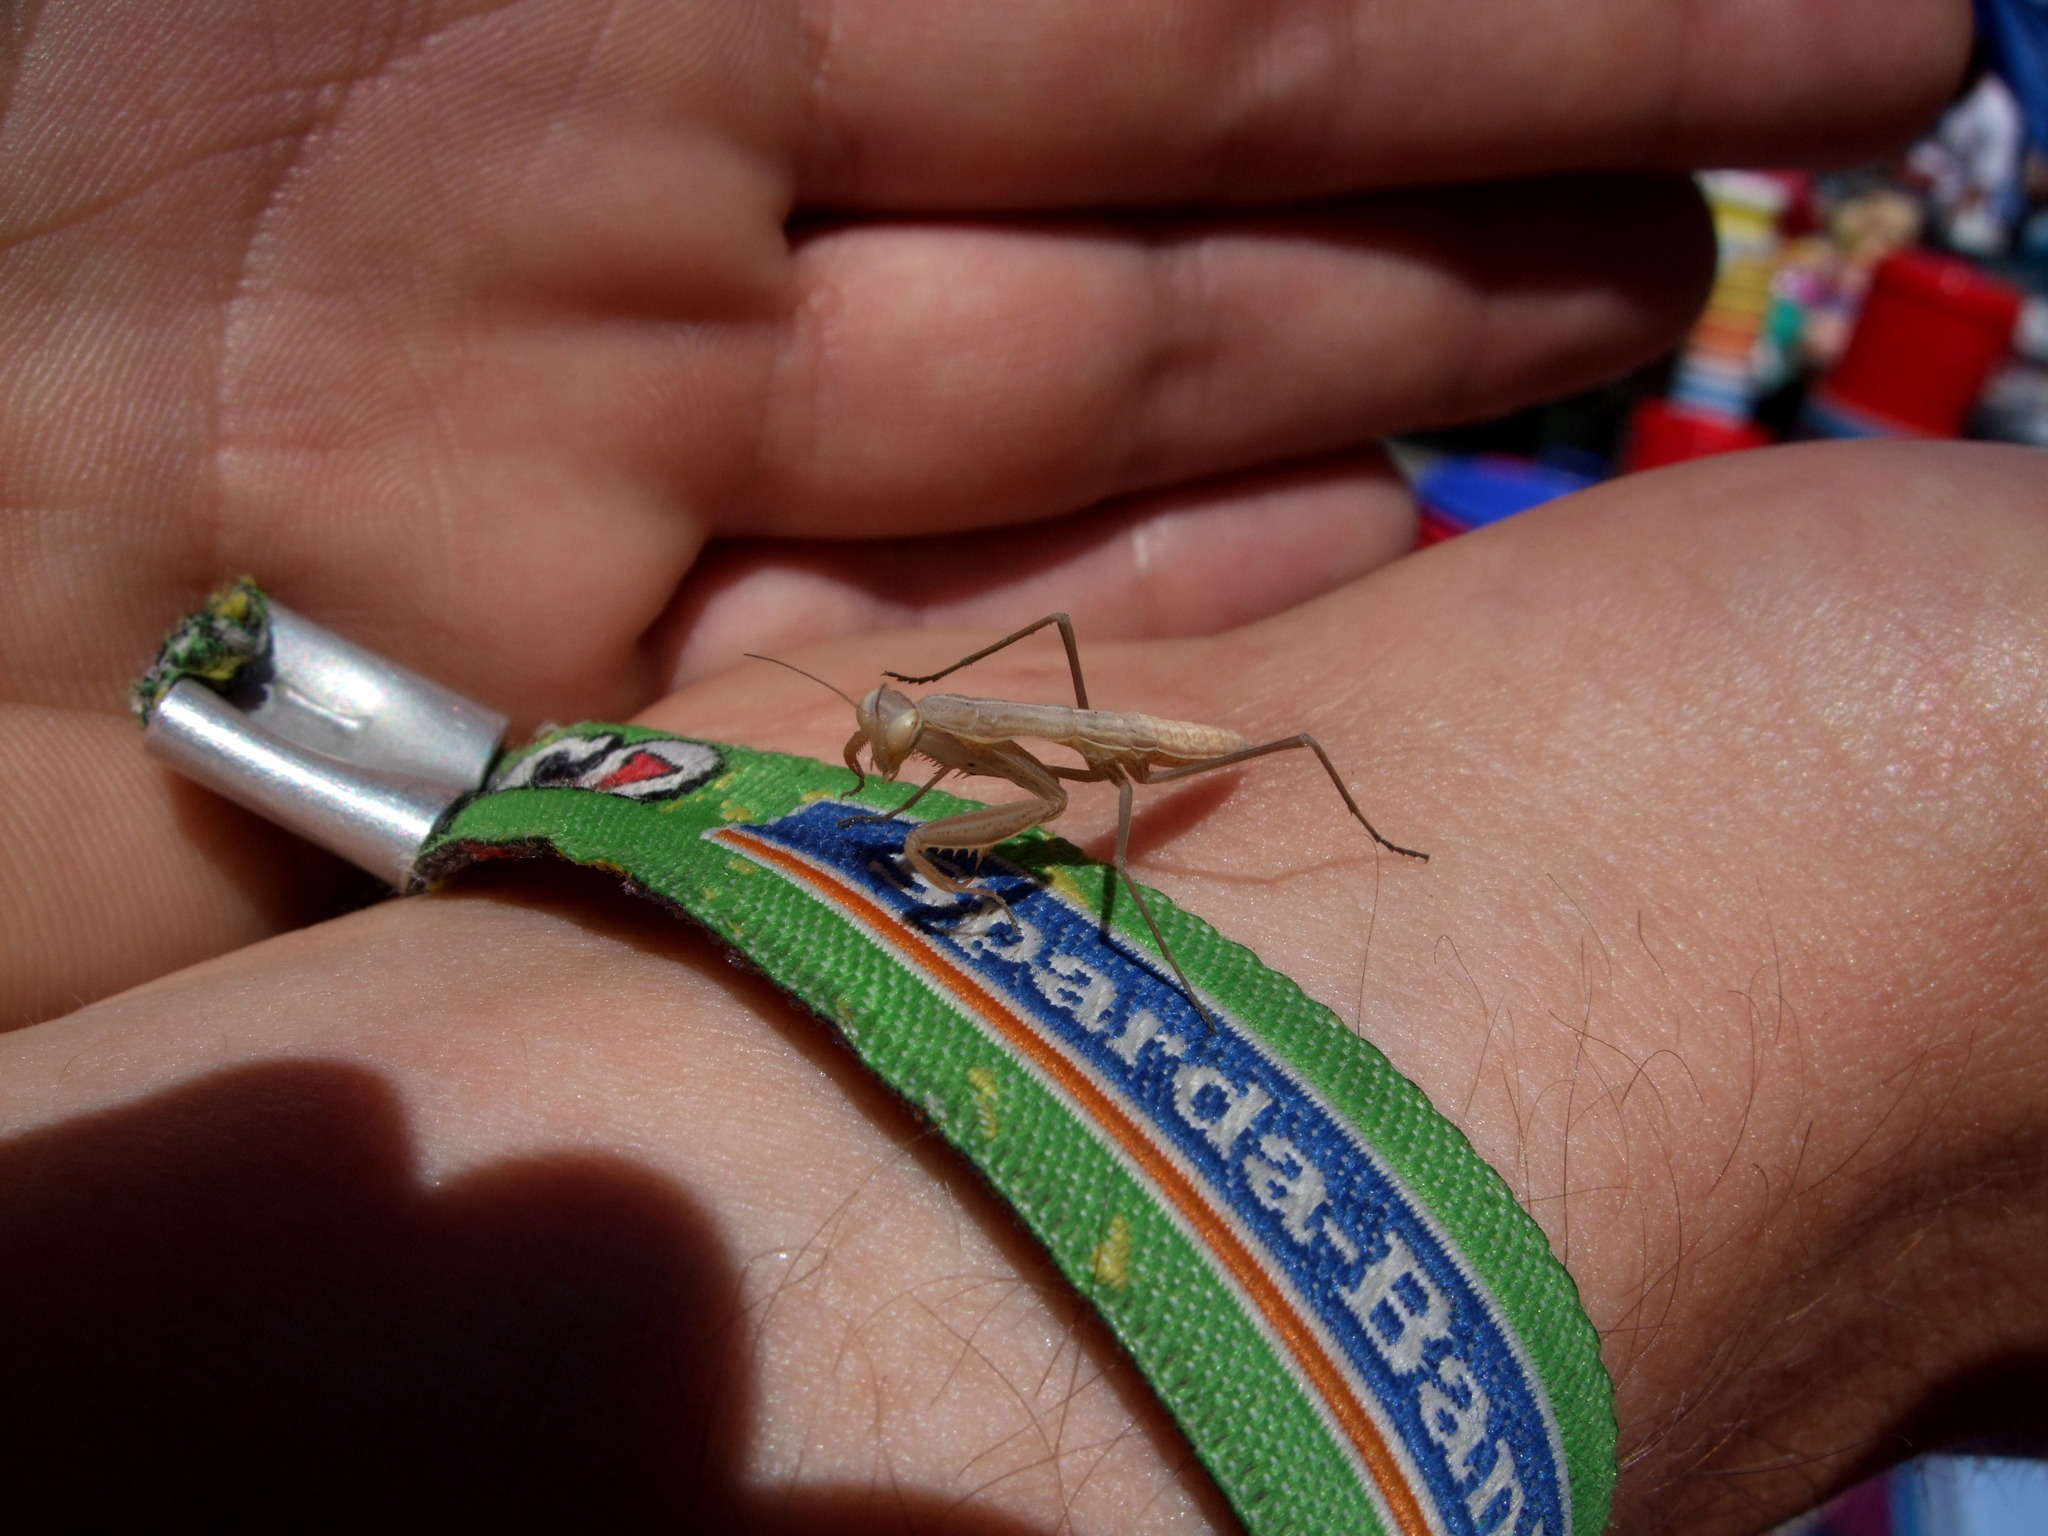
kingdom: Animalia
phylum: Arthropoda
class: Insecta
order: Mantodea
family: Mantidae
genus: Mantis
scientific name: Mantis religiosa
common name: Praying mantis
